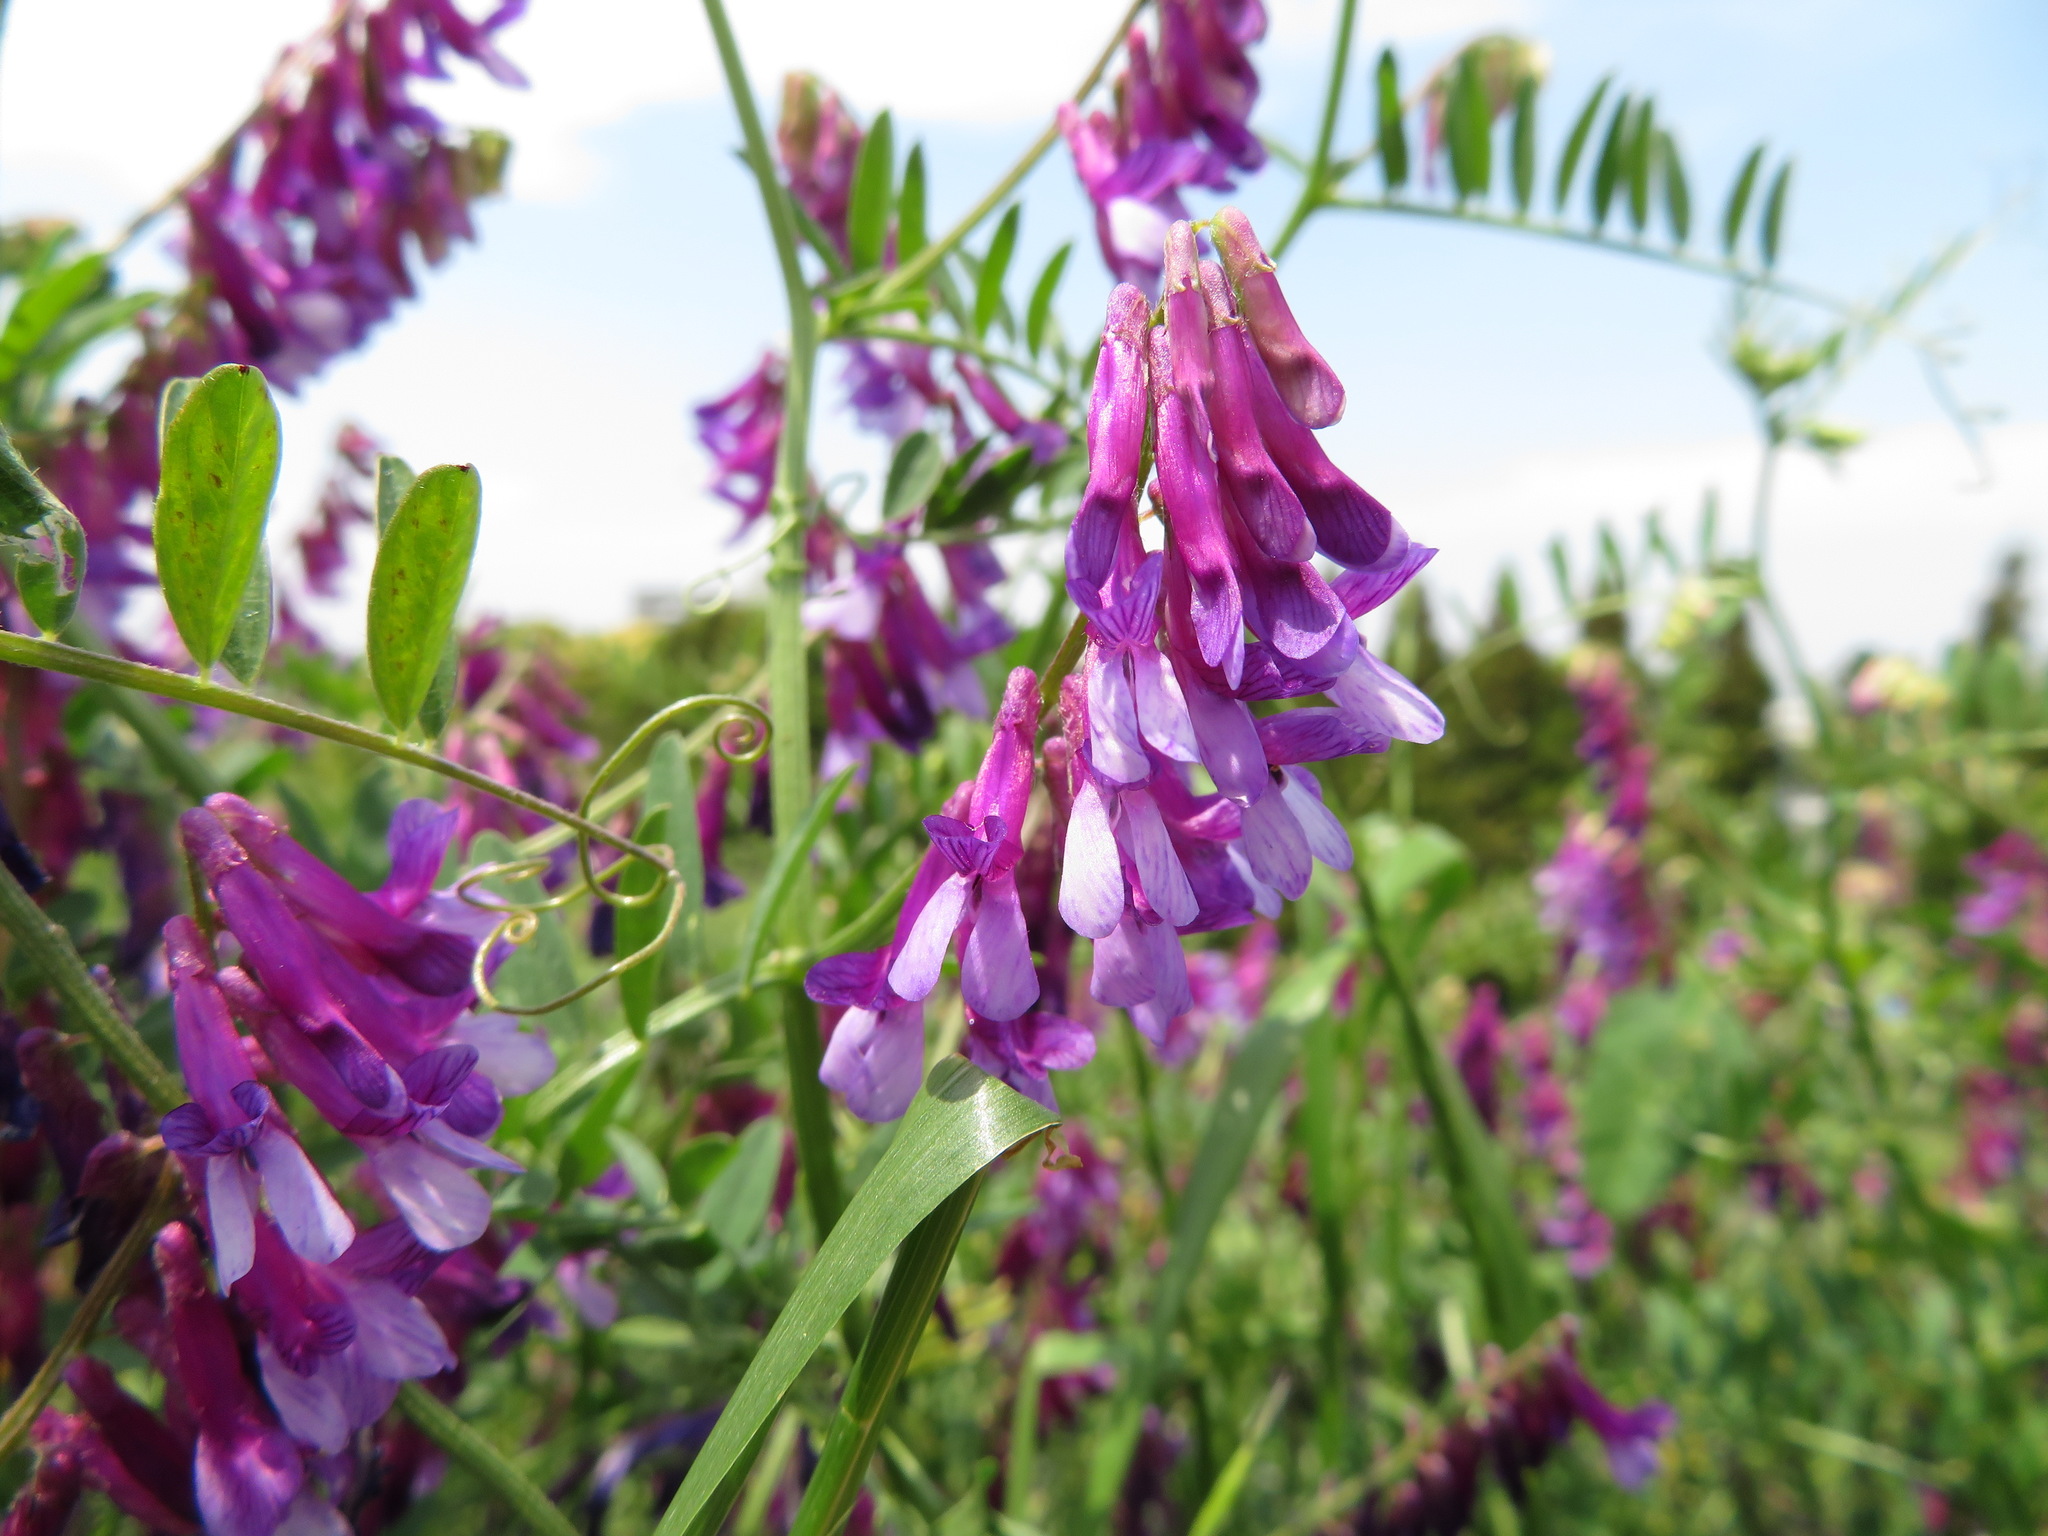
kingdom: Plantae
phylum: Tracheophyta
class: Magnoliopsida
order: Fabales
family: Fabaceae
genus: Vicia
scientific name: Vicia villosa
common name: Fodder vetch
